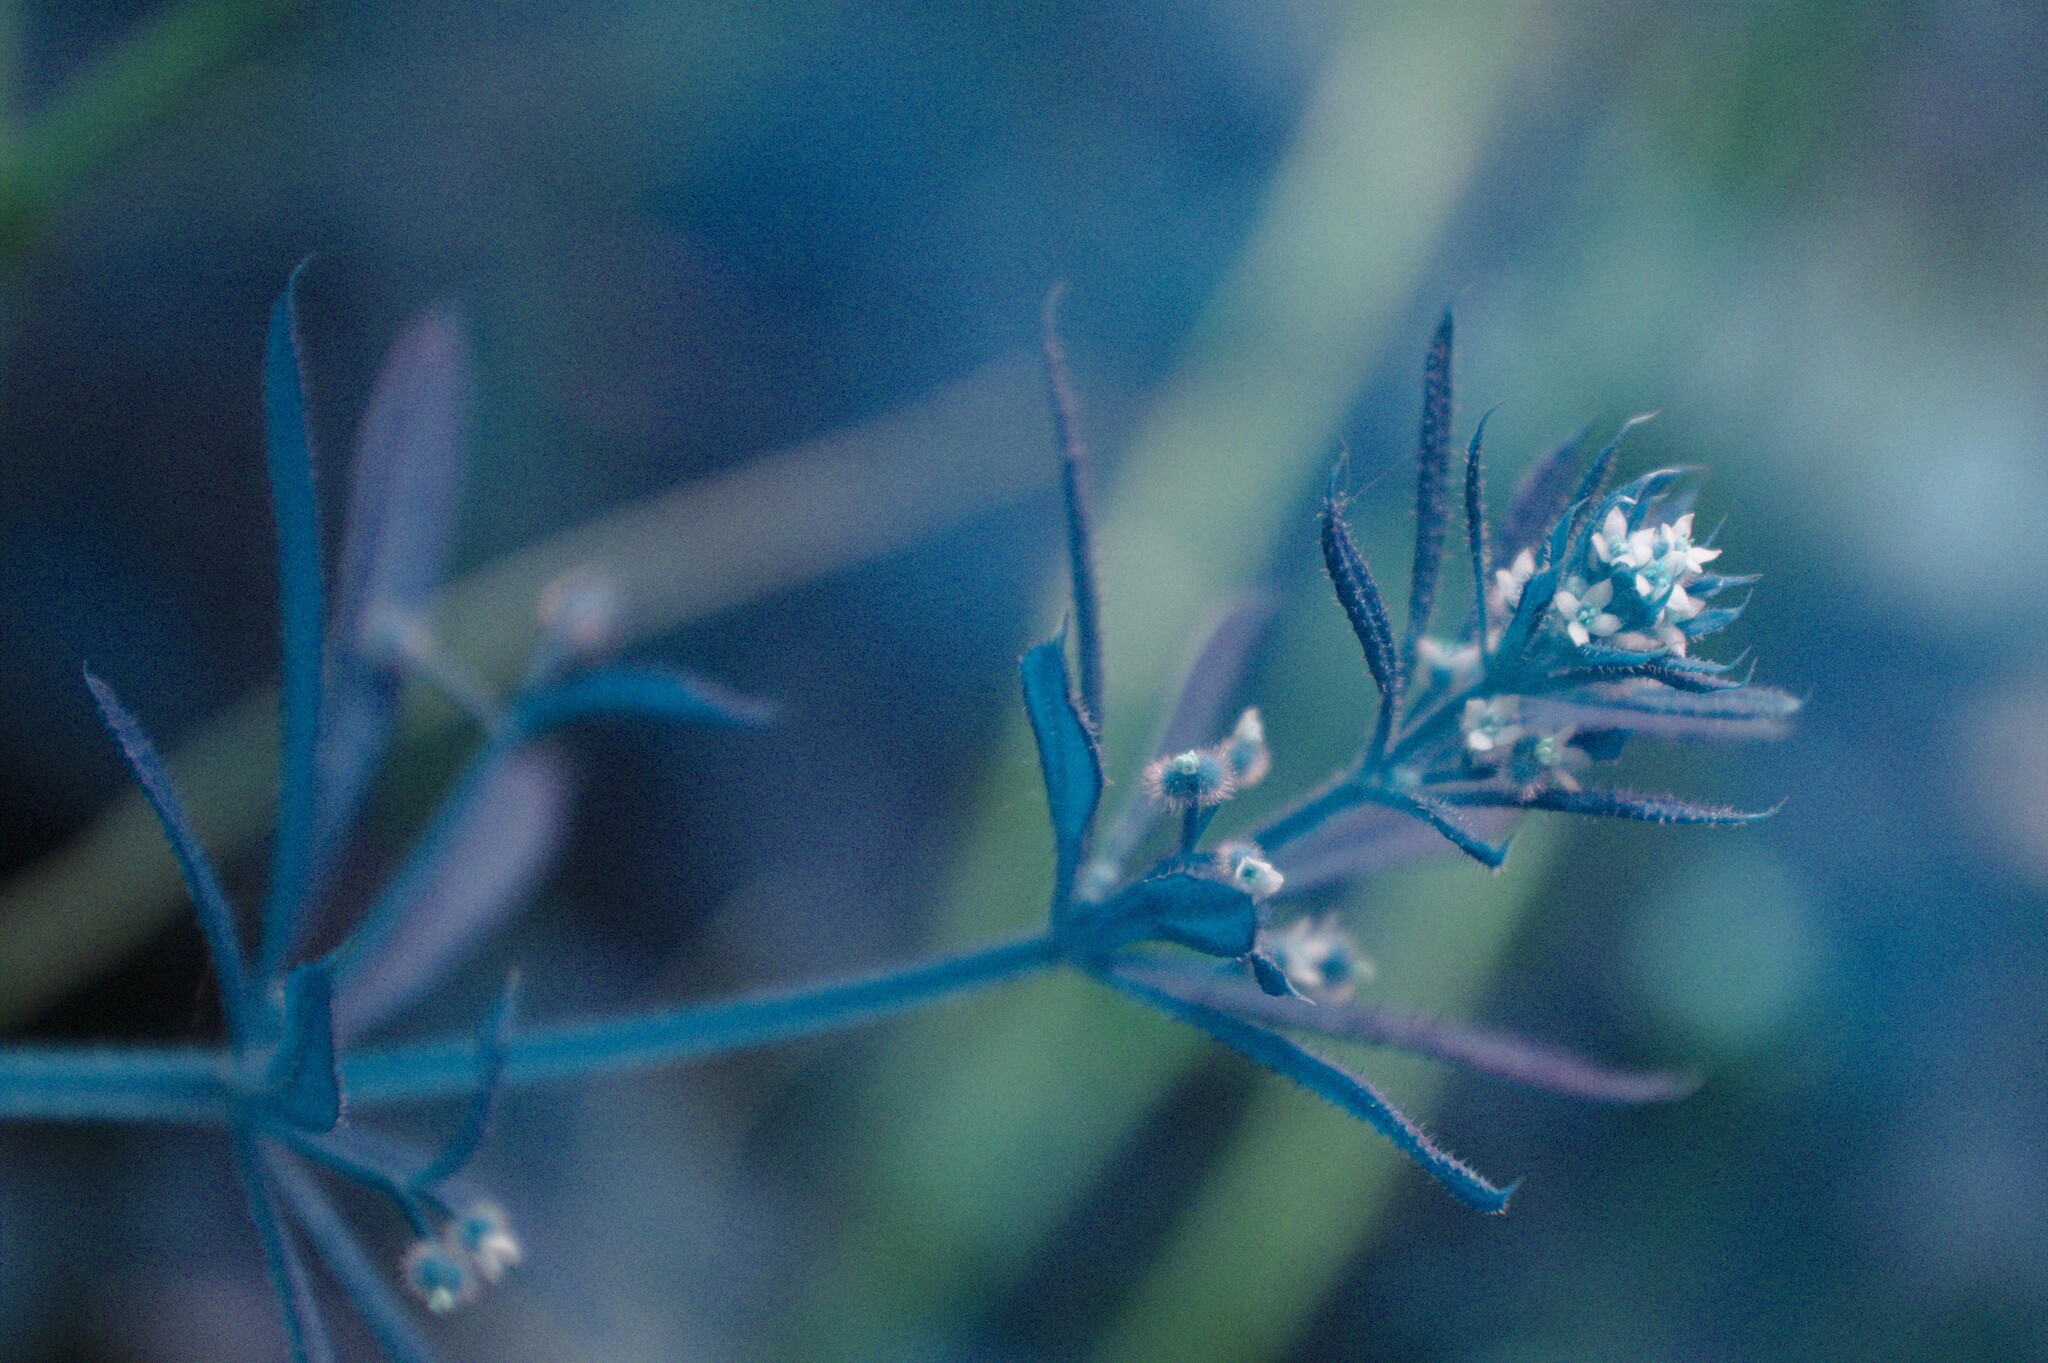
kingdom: Plantae
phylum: Tracheophyta
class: Magnoliopsida
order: Gentianales
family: Rubiaceae
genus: Galium
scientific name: Galium aparine
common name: Cleavers
